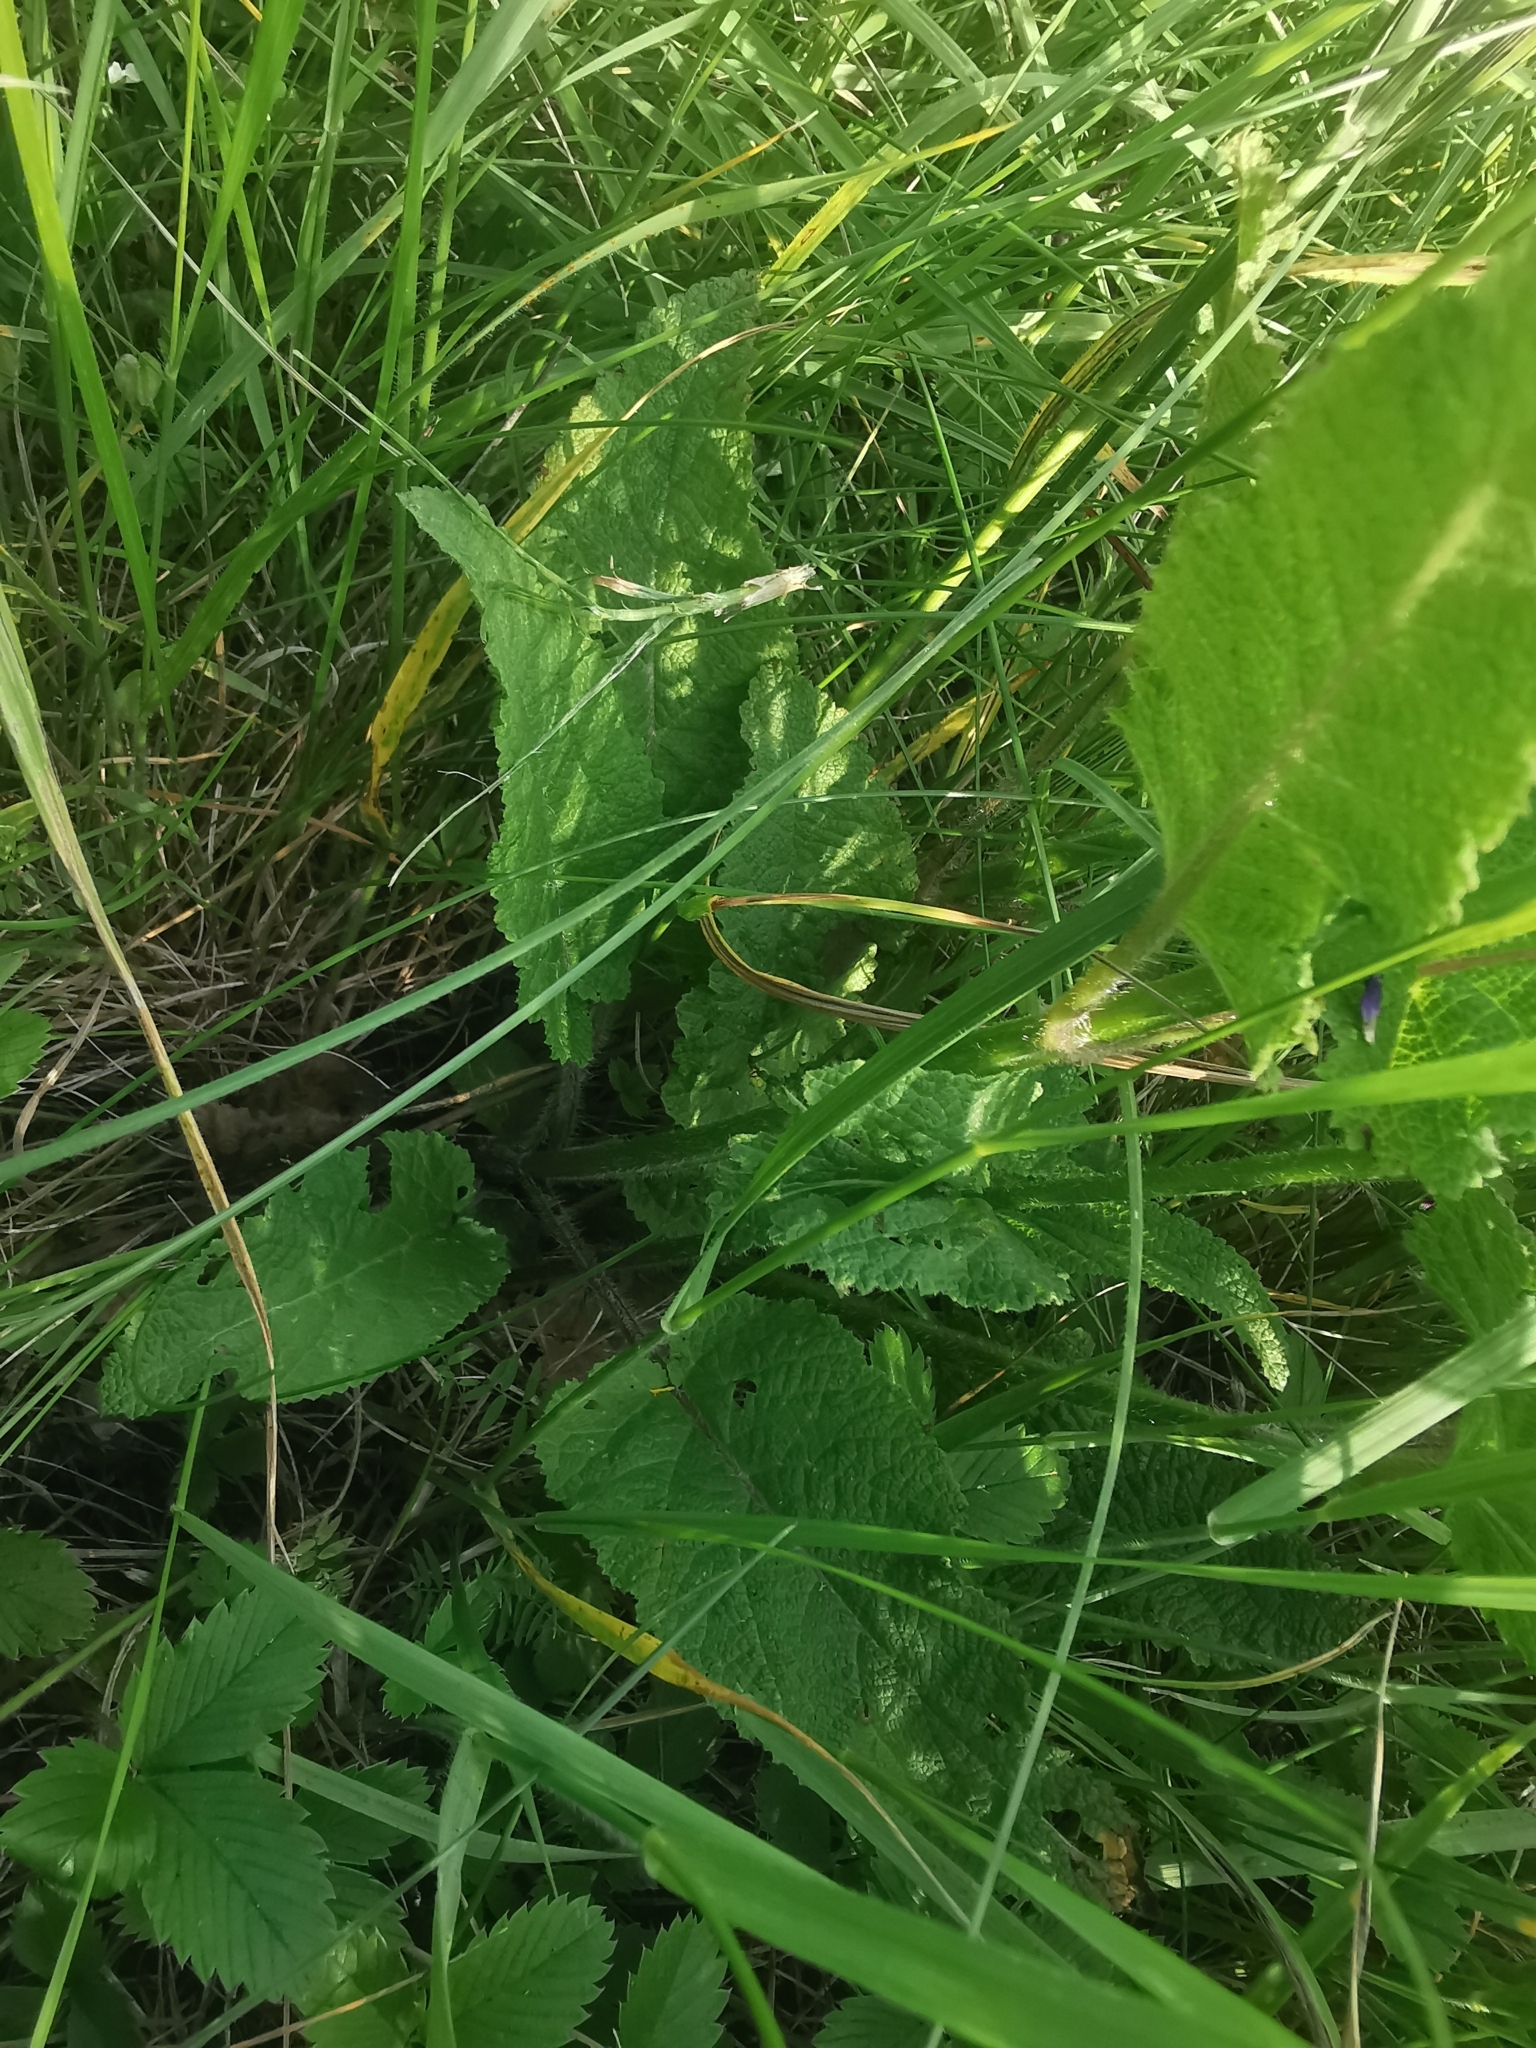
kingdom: Plantae
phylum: Tracheophyta
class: Magnoliopsida
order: Lamiales
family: Lamiaceae
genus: Salvia
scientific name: Salvia pratensis
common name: Meadow sage
